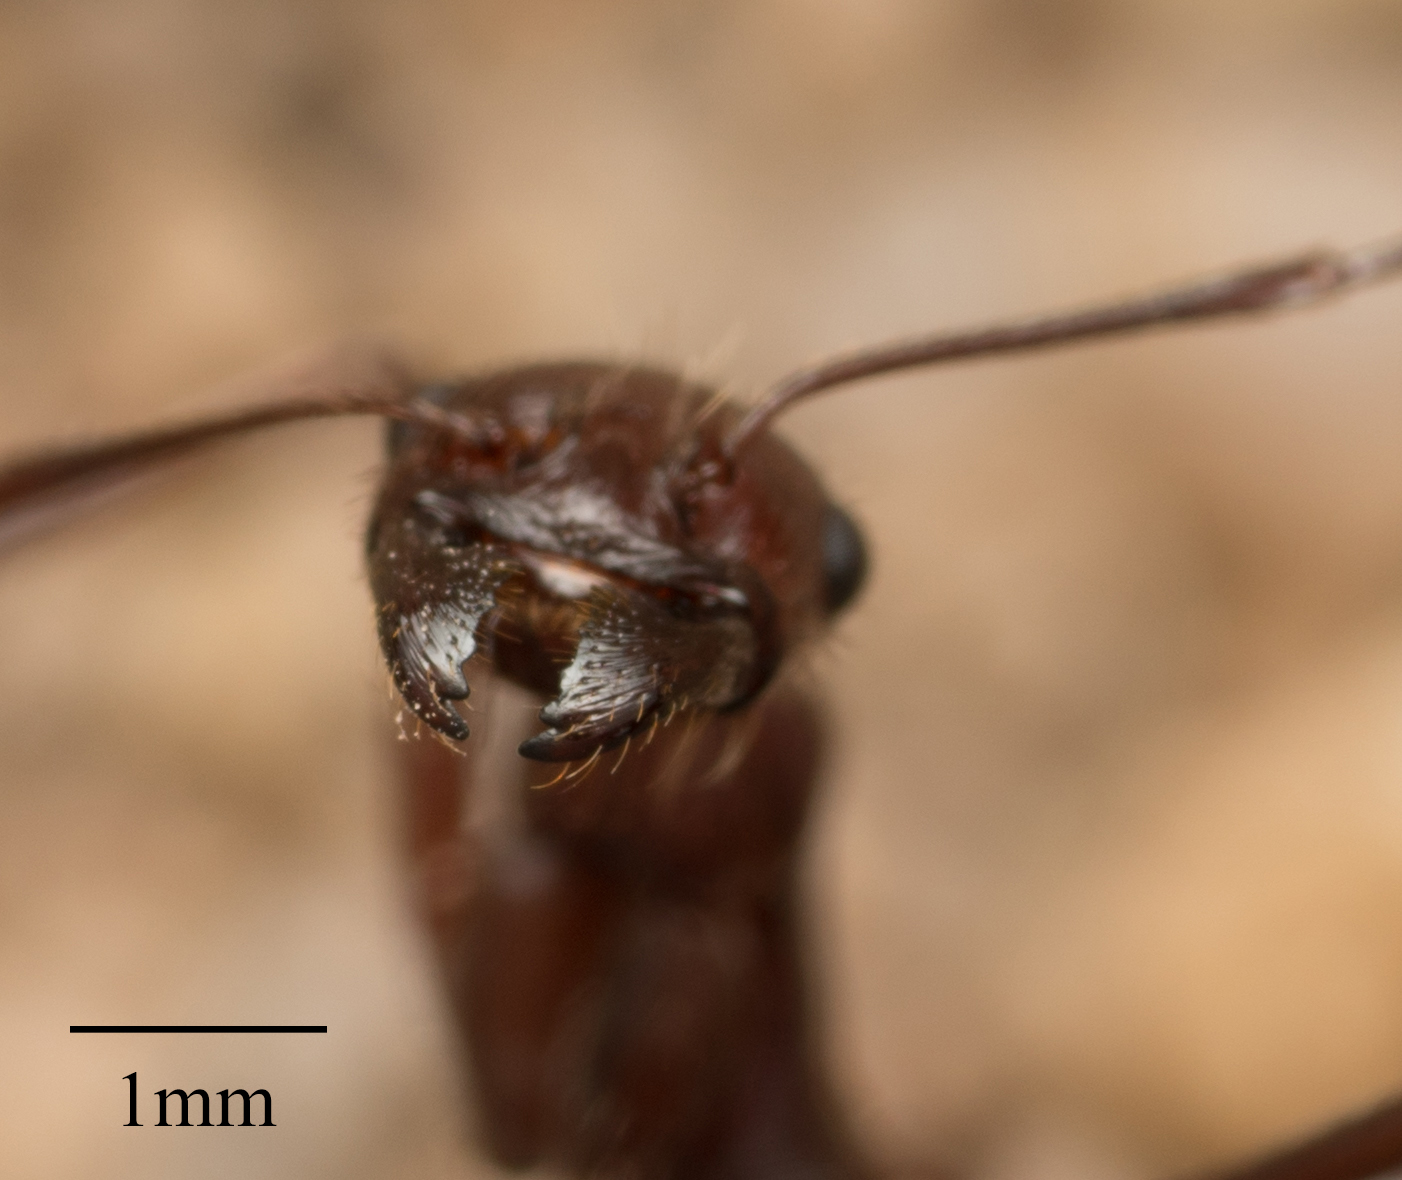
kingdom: Animalia
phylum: Arthropoda
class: Insecta
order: Hymenoptera
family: Formicidae
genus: Novomessor
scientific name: Novomessor cockerelli
